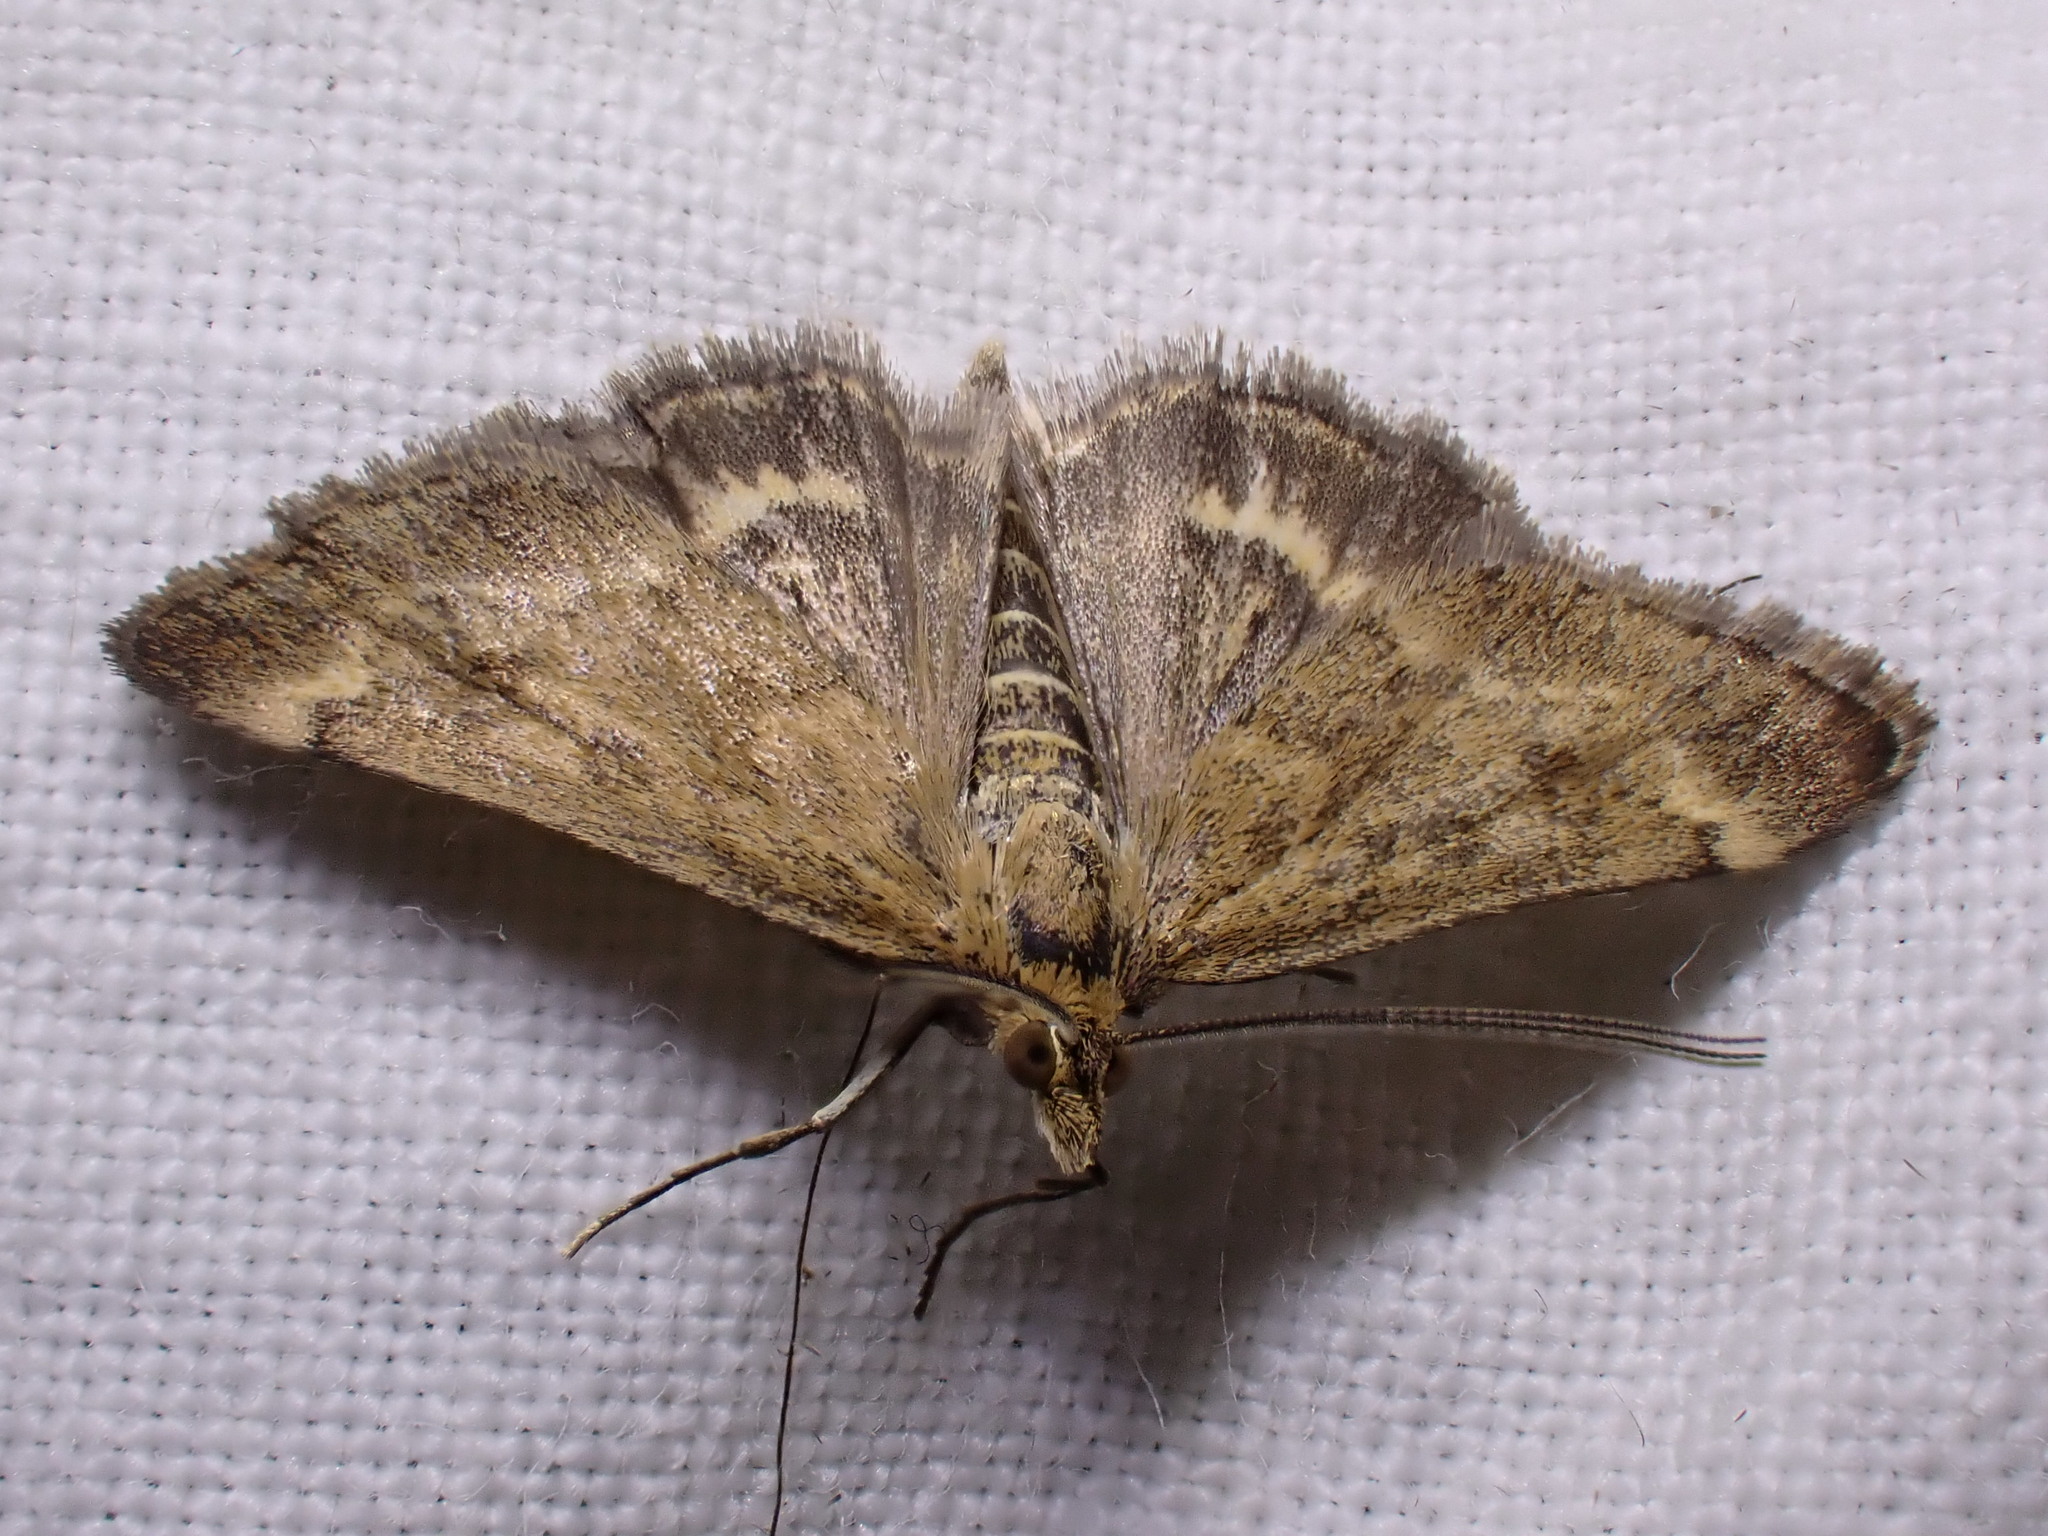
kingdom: Animalia
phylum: Arthropoda
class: Insecta
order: Lepidoptera
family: Crambidae
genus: Pyrausta
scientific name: Pyrausta despicata
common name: Straw-barred pearl
